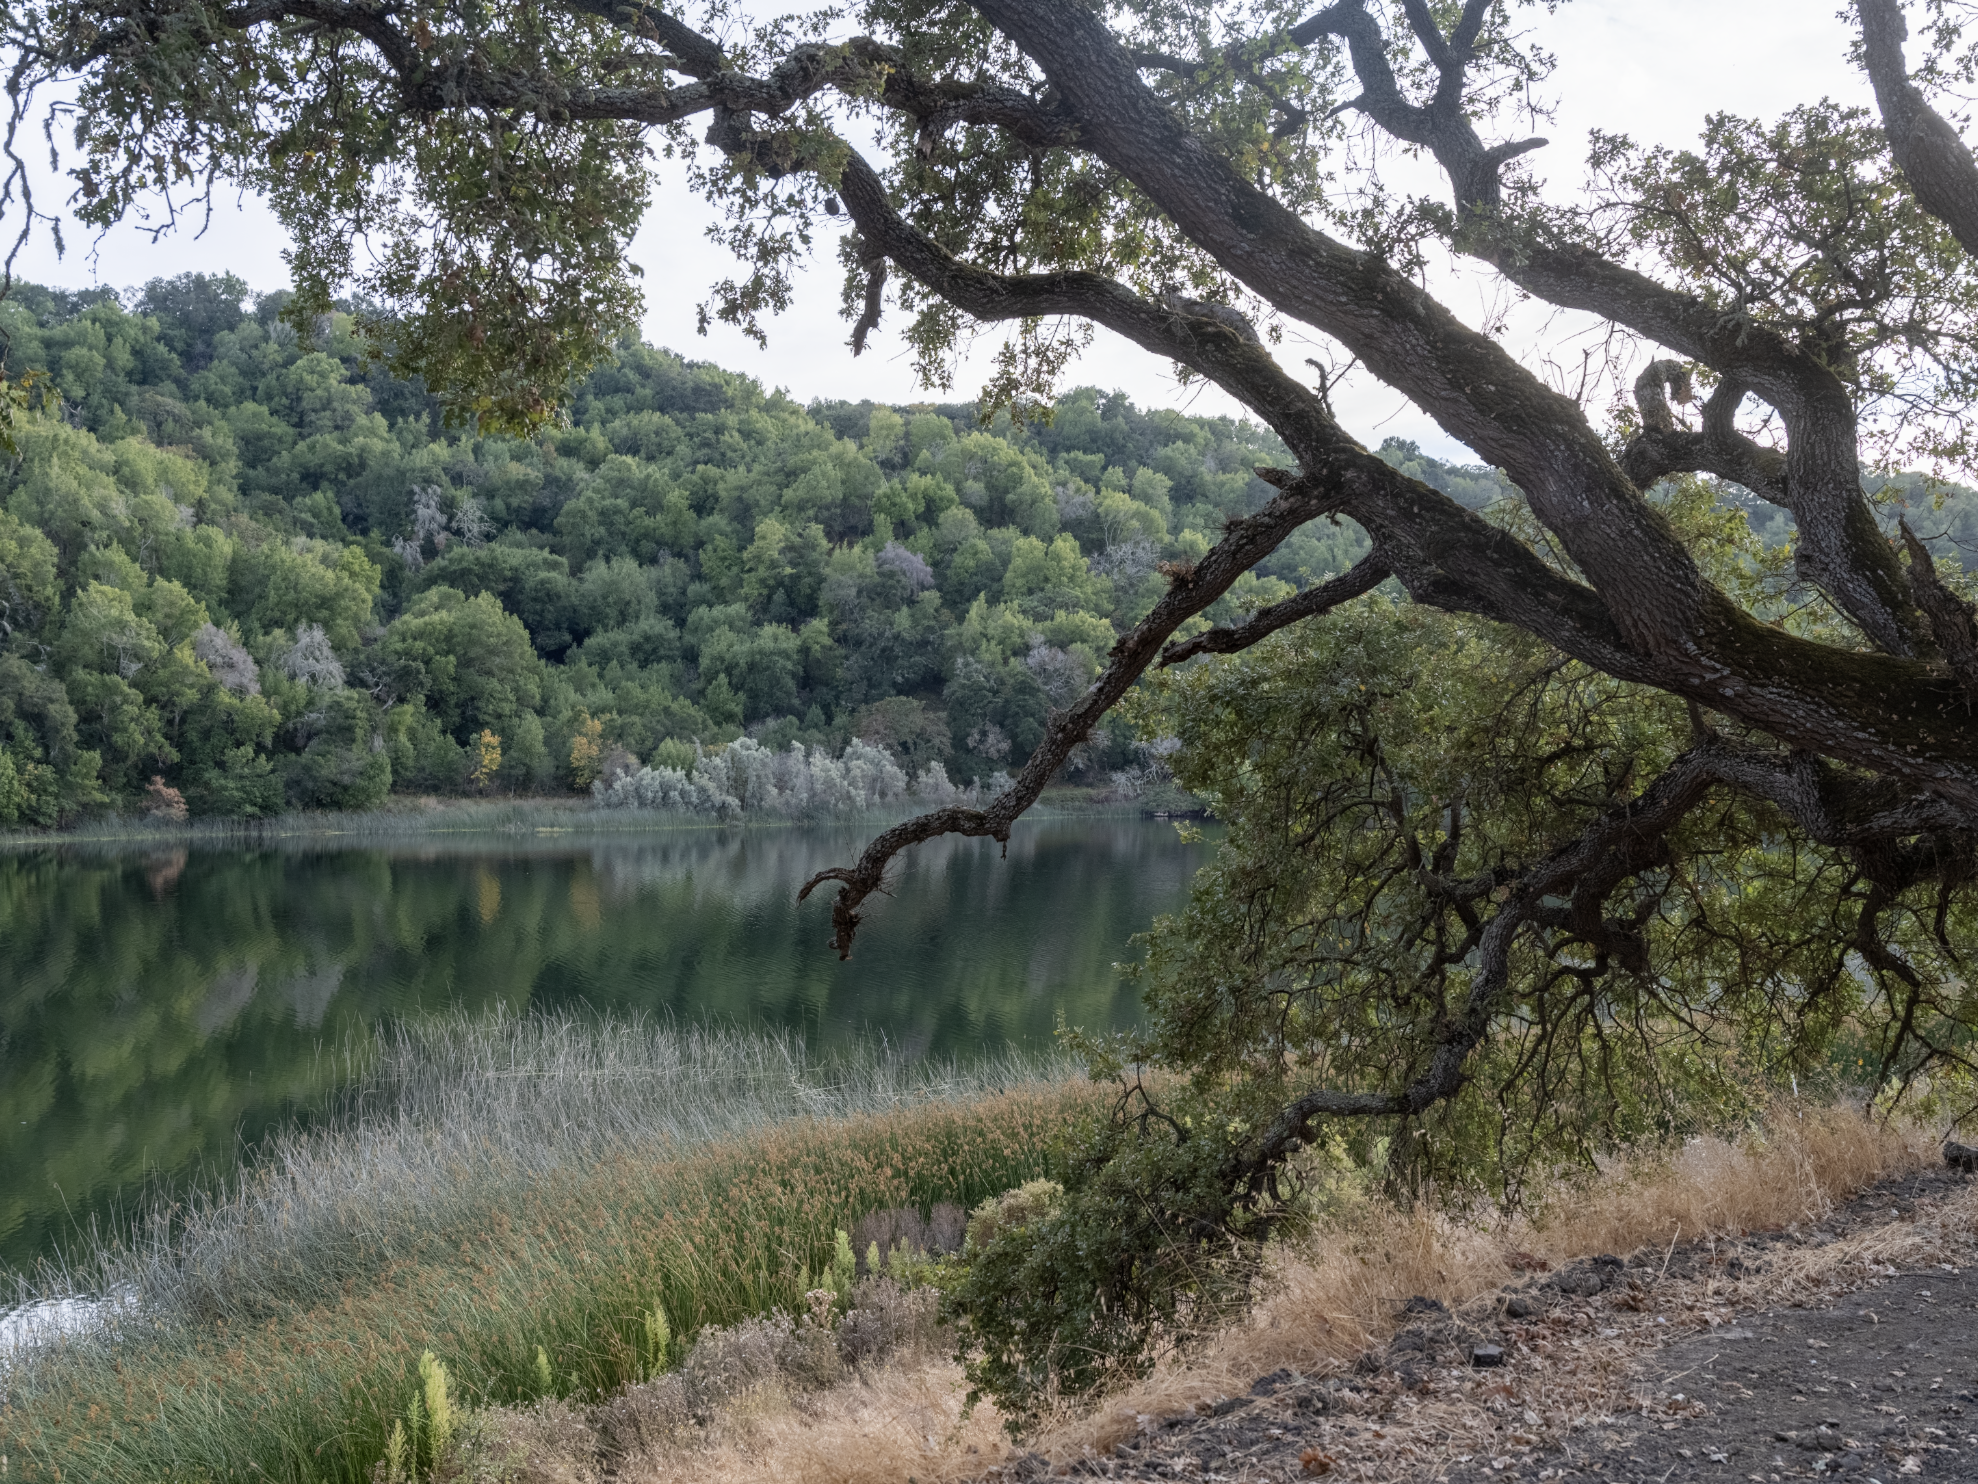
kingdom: Animalia
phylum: Chordata
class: Aves
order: Passeriformes
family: Icteridae
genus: Agelaius
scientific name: Agelaius phoeniceus
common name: Red-winged blackbird
